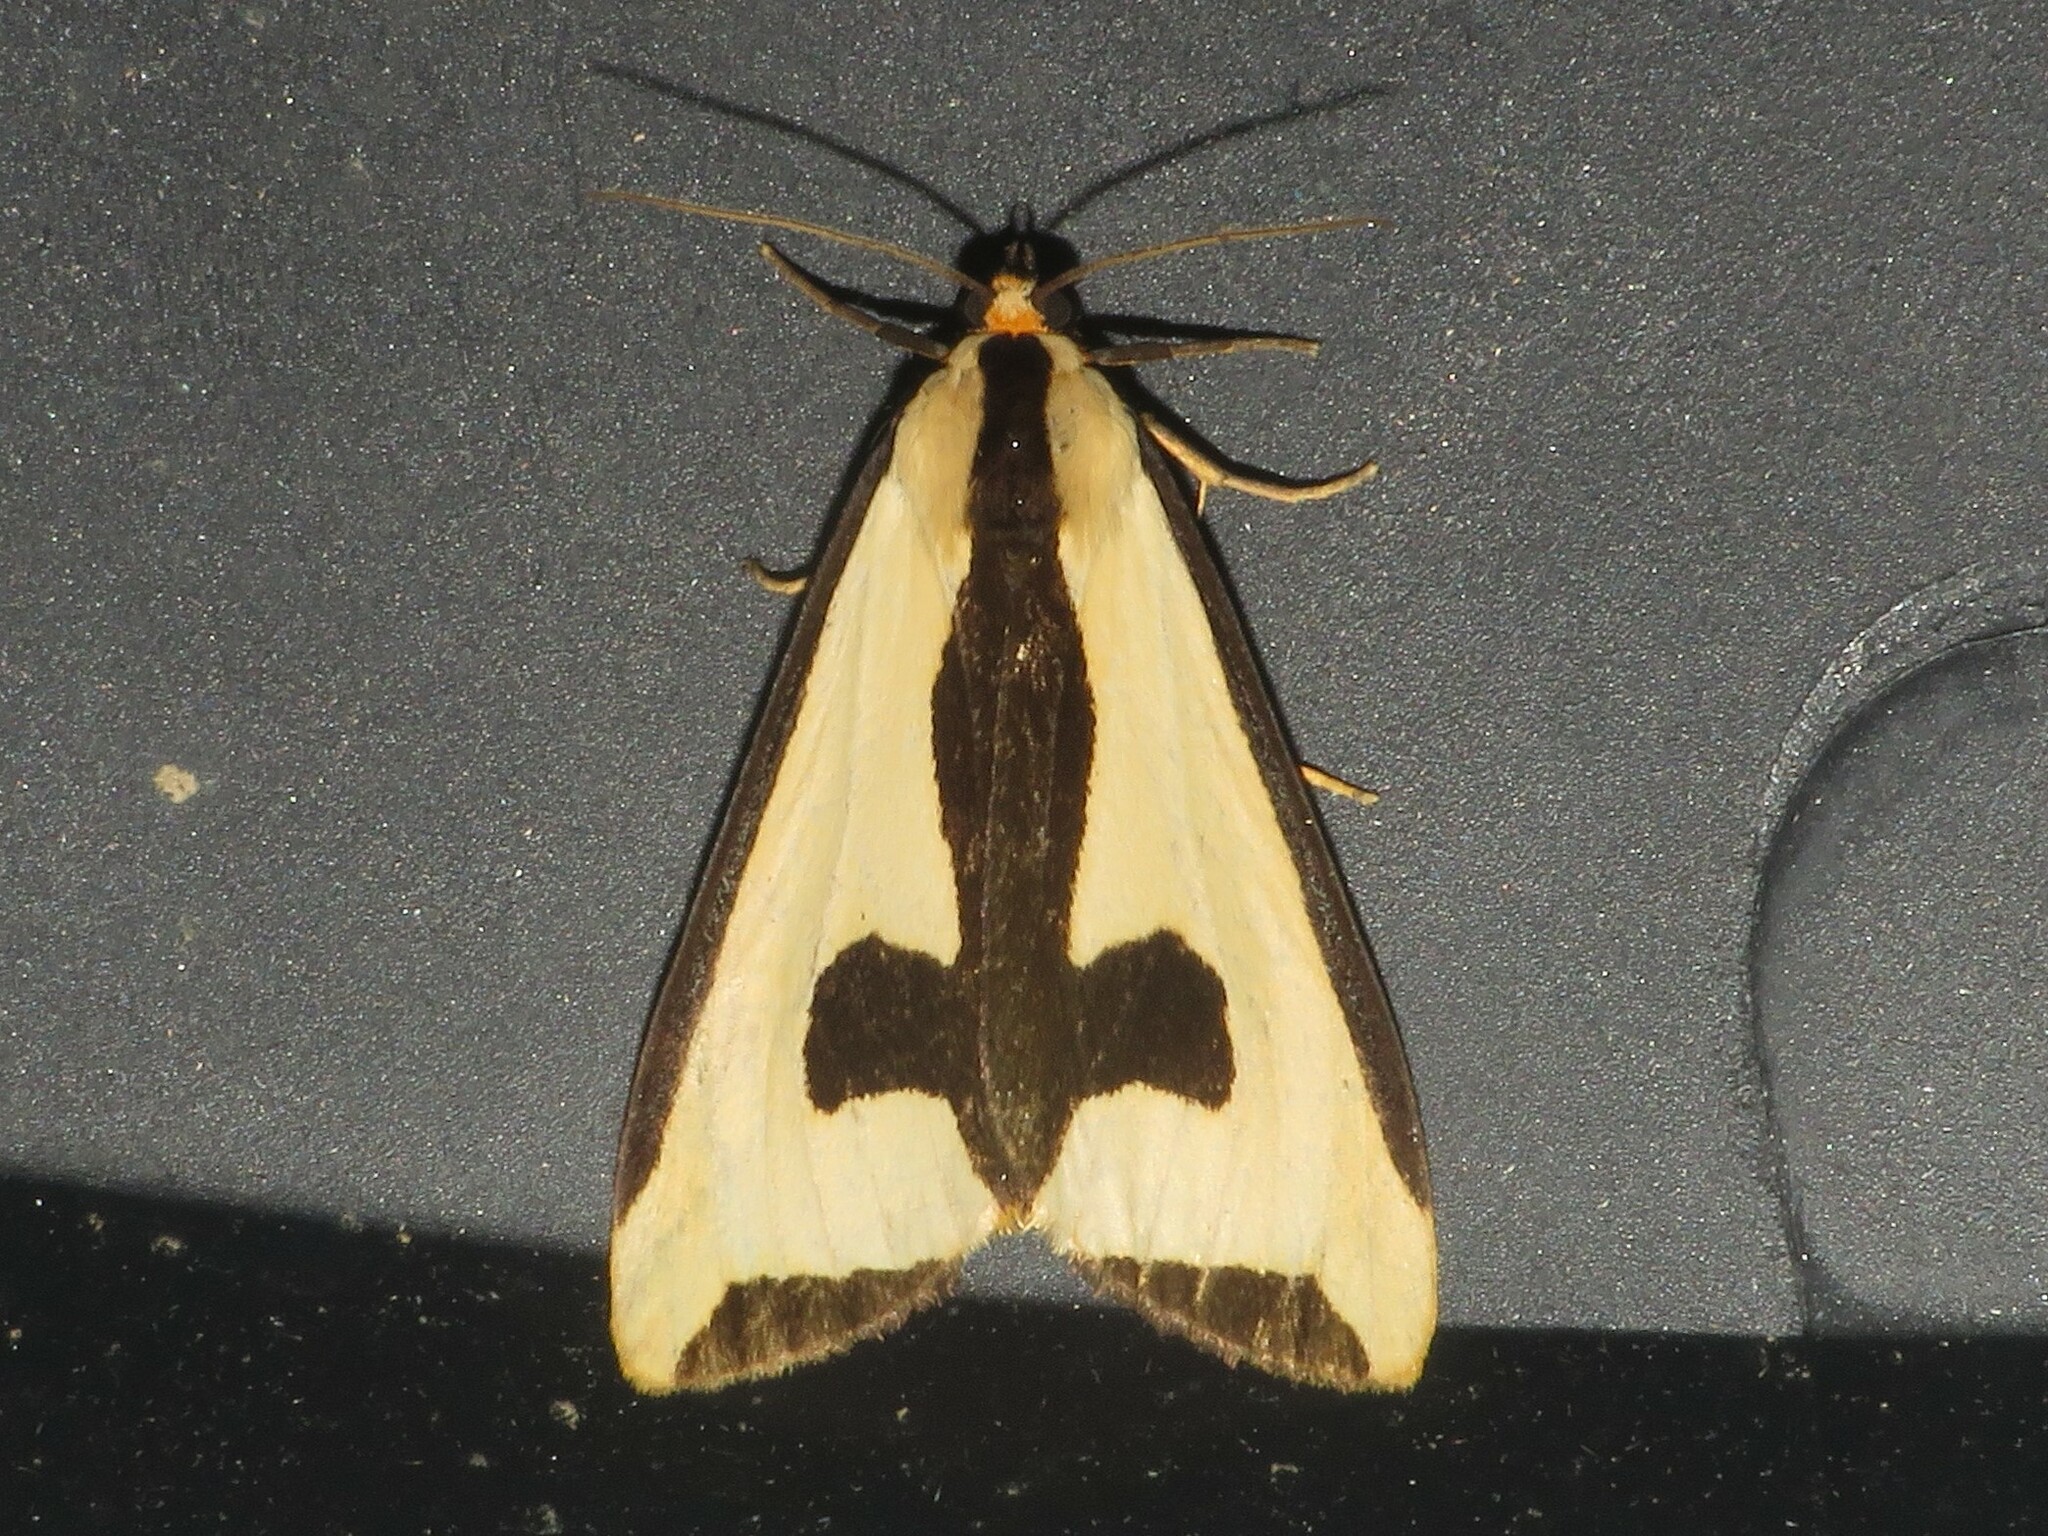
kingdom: Animalia
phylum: Arthropoda
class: Insecta
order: Lepidoptera
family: Erebidae
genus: Haploa
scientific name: Haploa clymene
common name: Clymene moth
